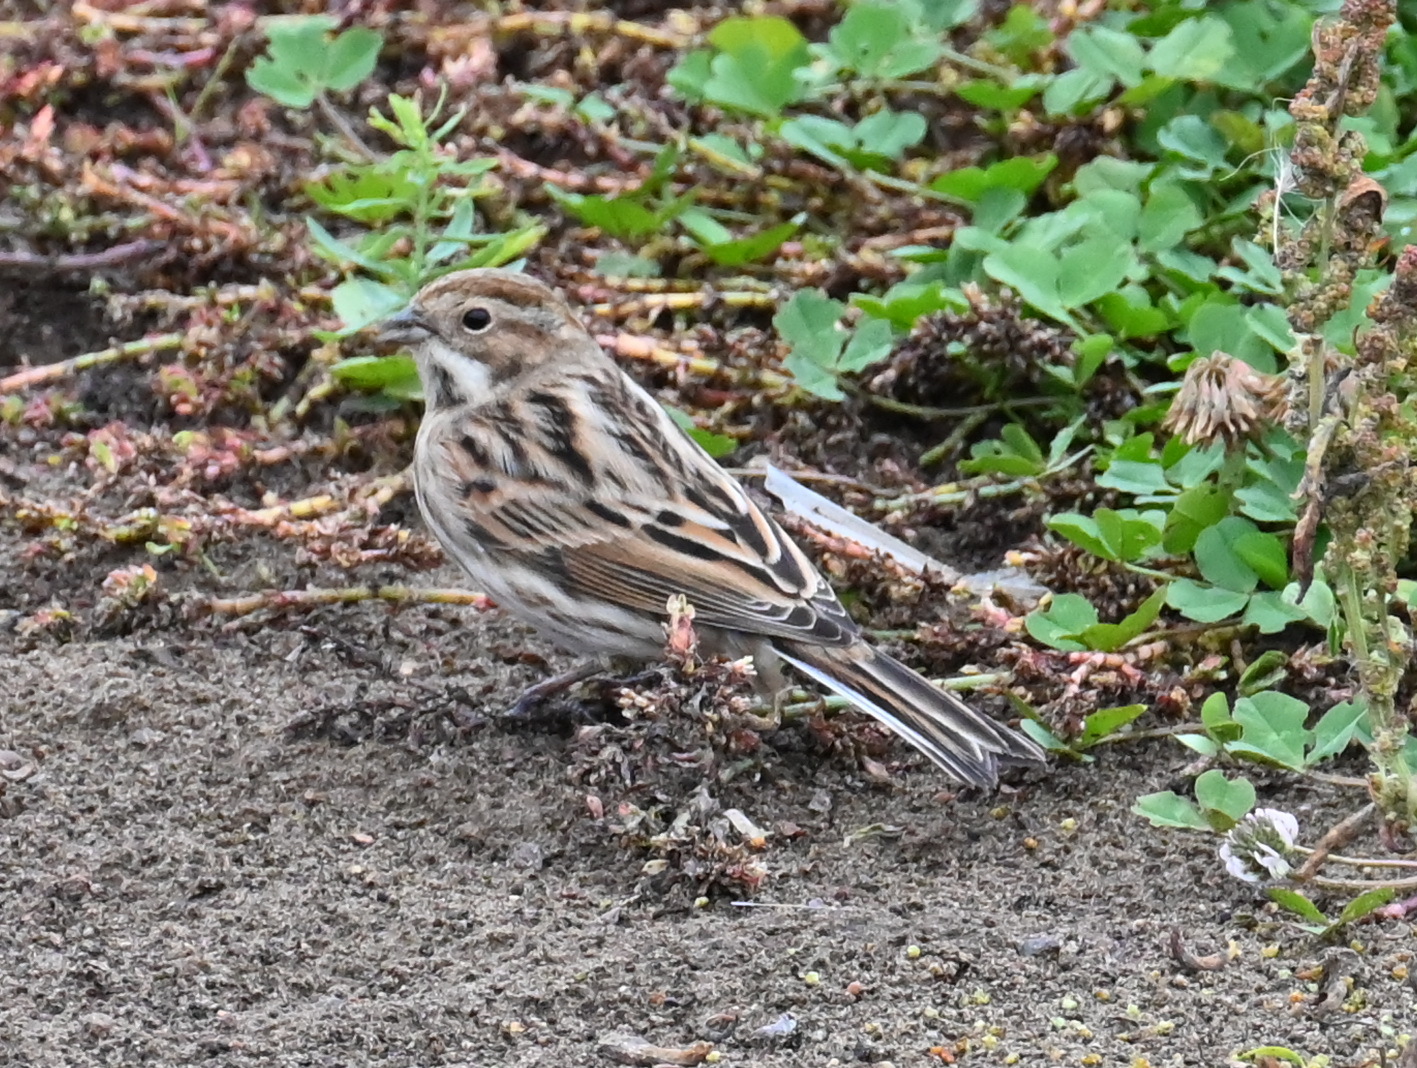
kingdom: Animalia
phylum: Chordata
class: Aves
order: Passeriformes
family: Emberizidae
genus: Emberiza
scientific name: Emberiza schoeniclus
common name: Reed bunting
